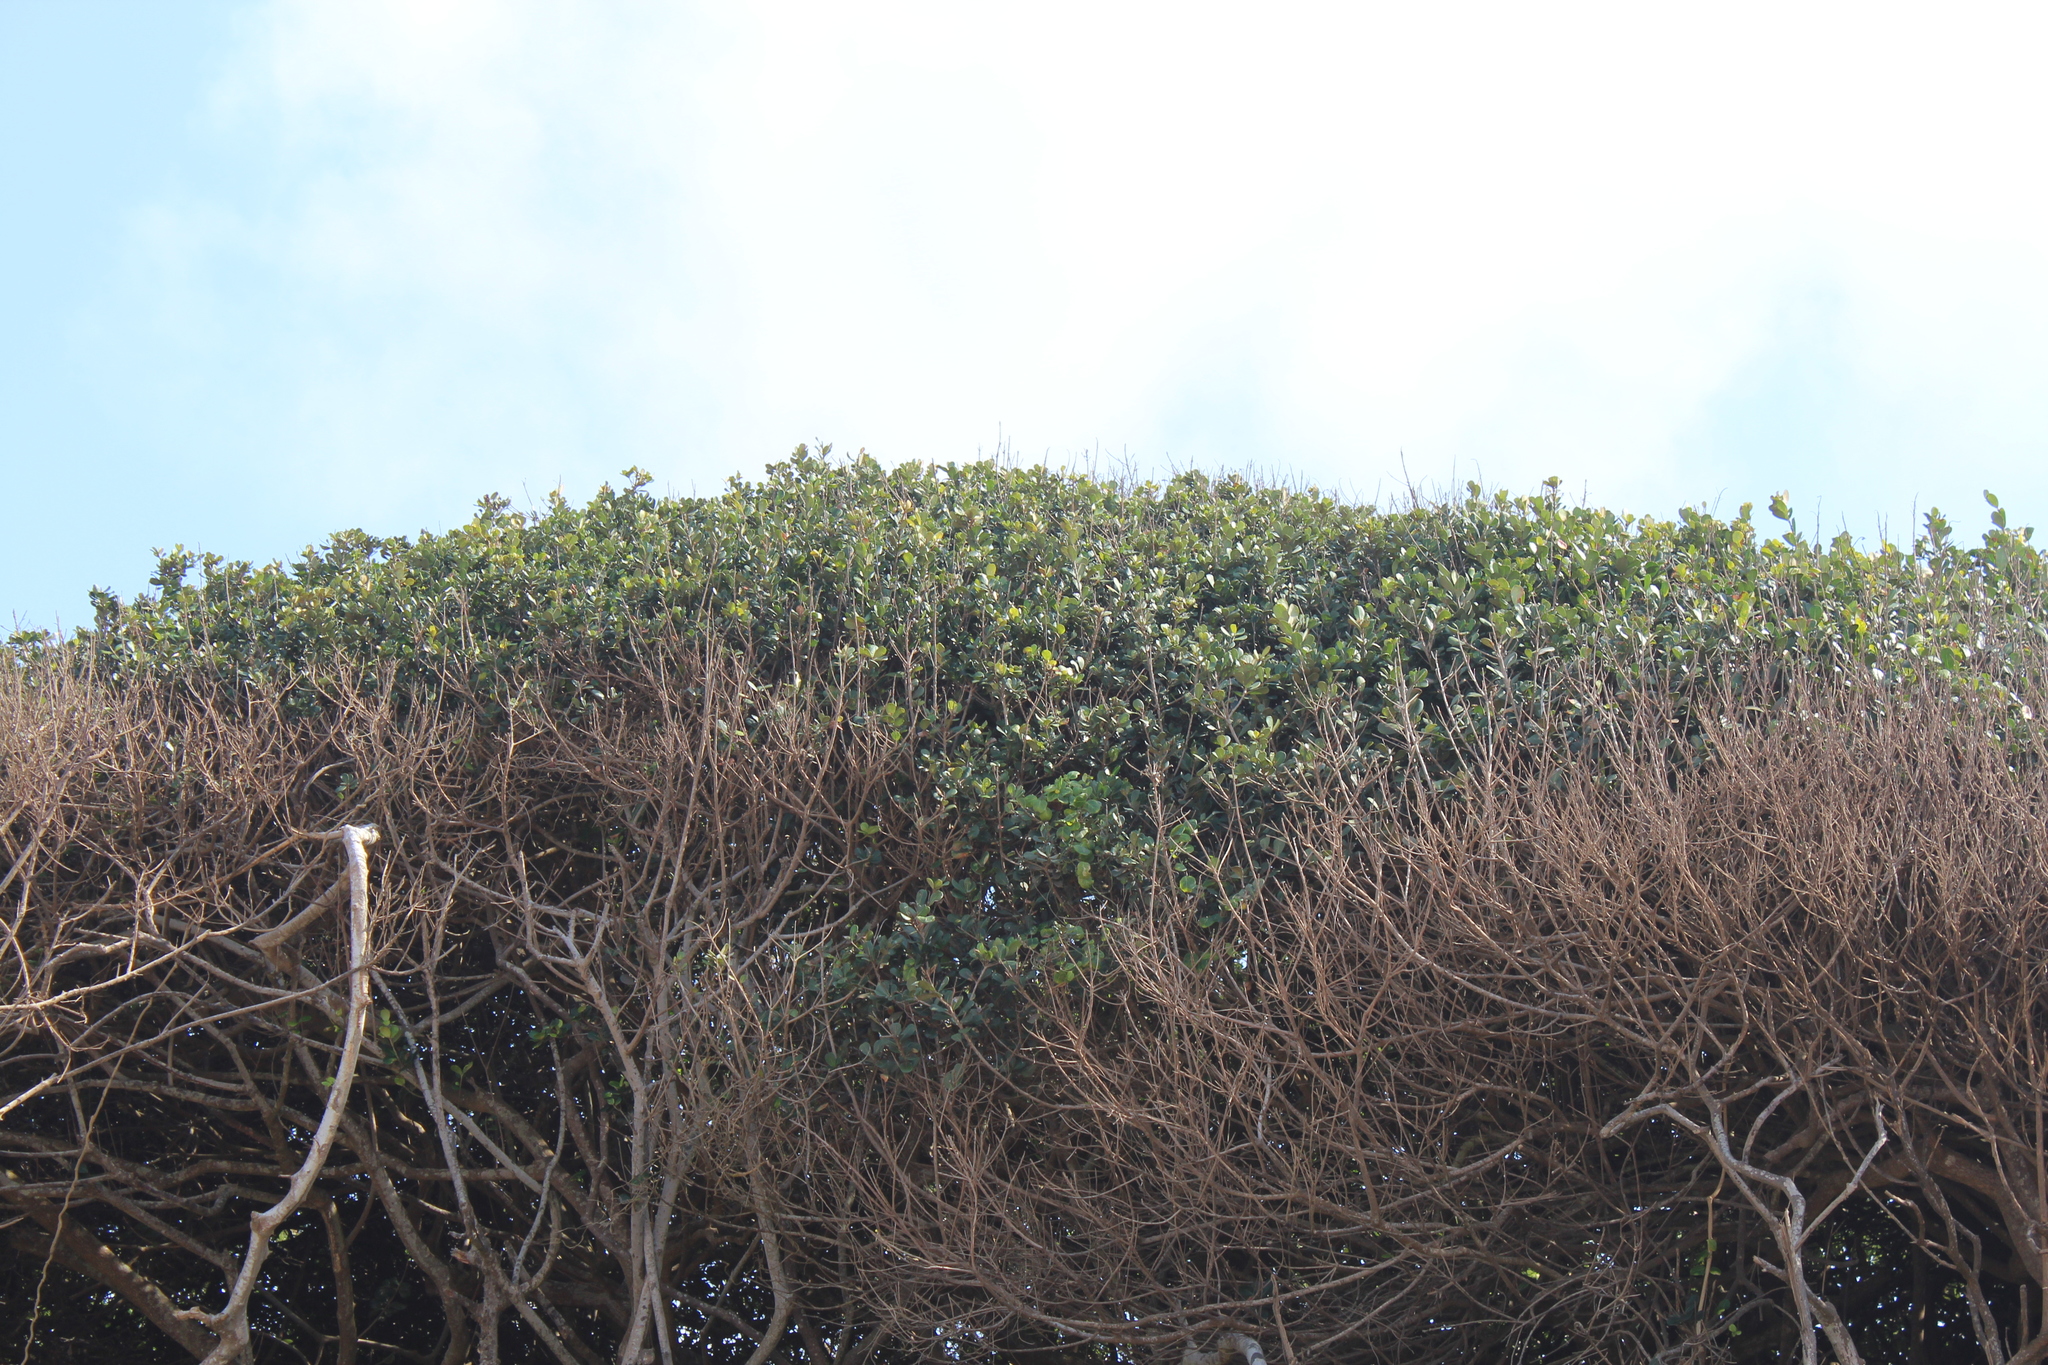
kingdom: Plantae
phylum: Tracheophyta
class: Magnoliopsida
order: Ericales
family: Sapotaceae
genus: Sideroxylon
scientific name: Sideroxylon inerme
